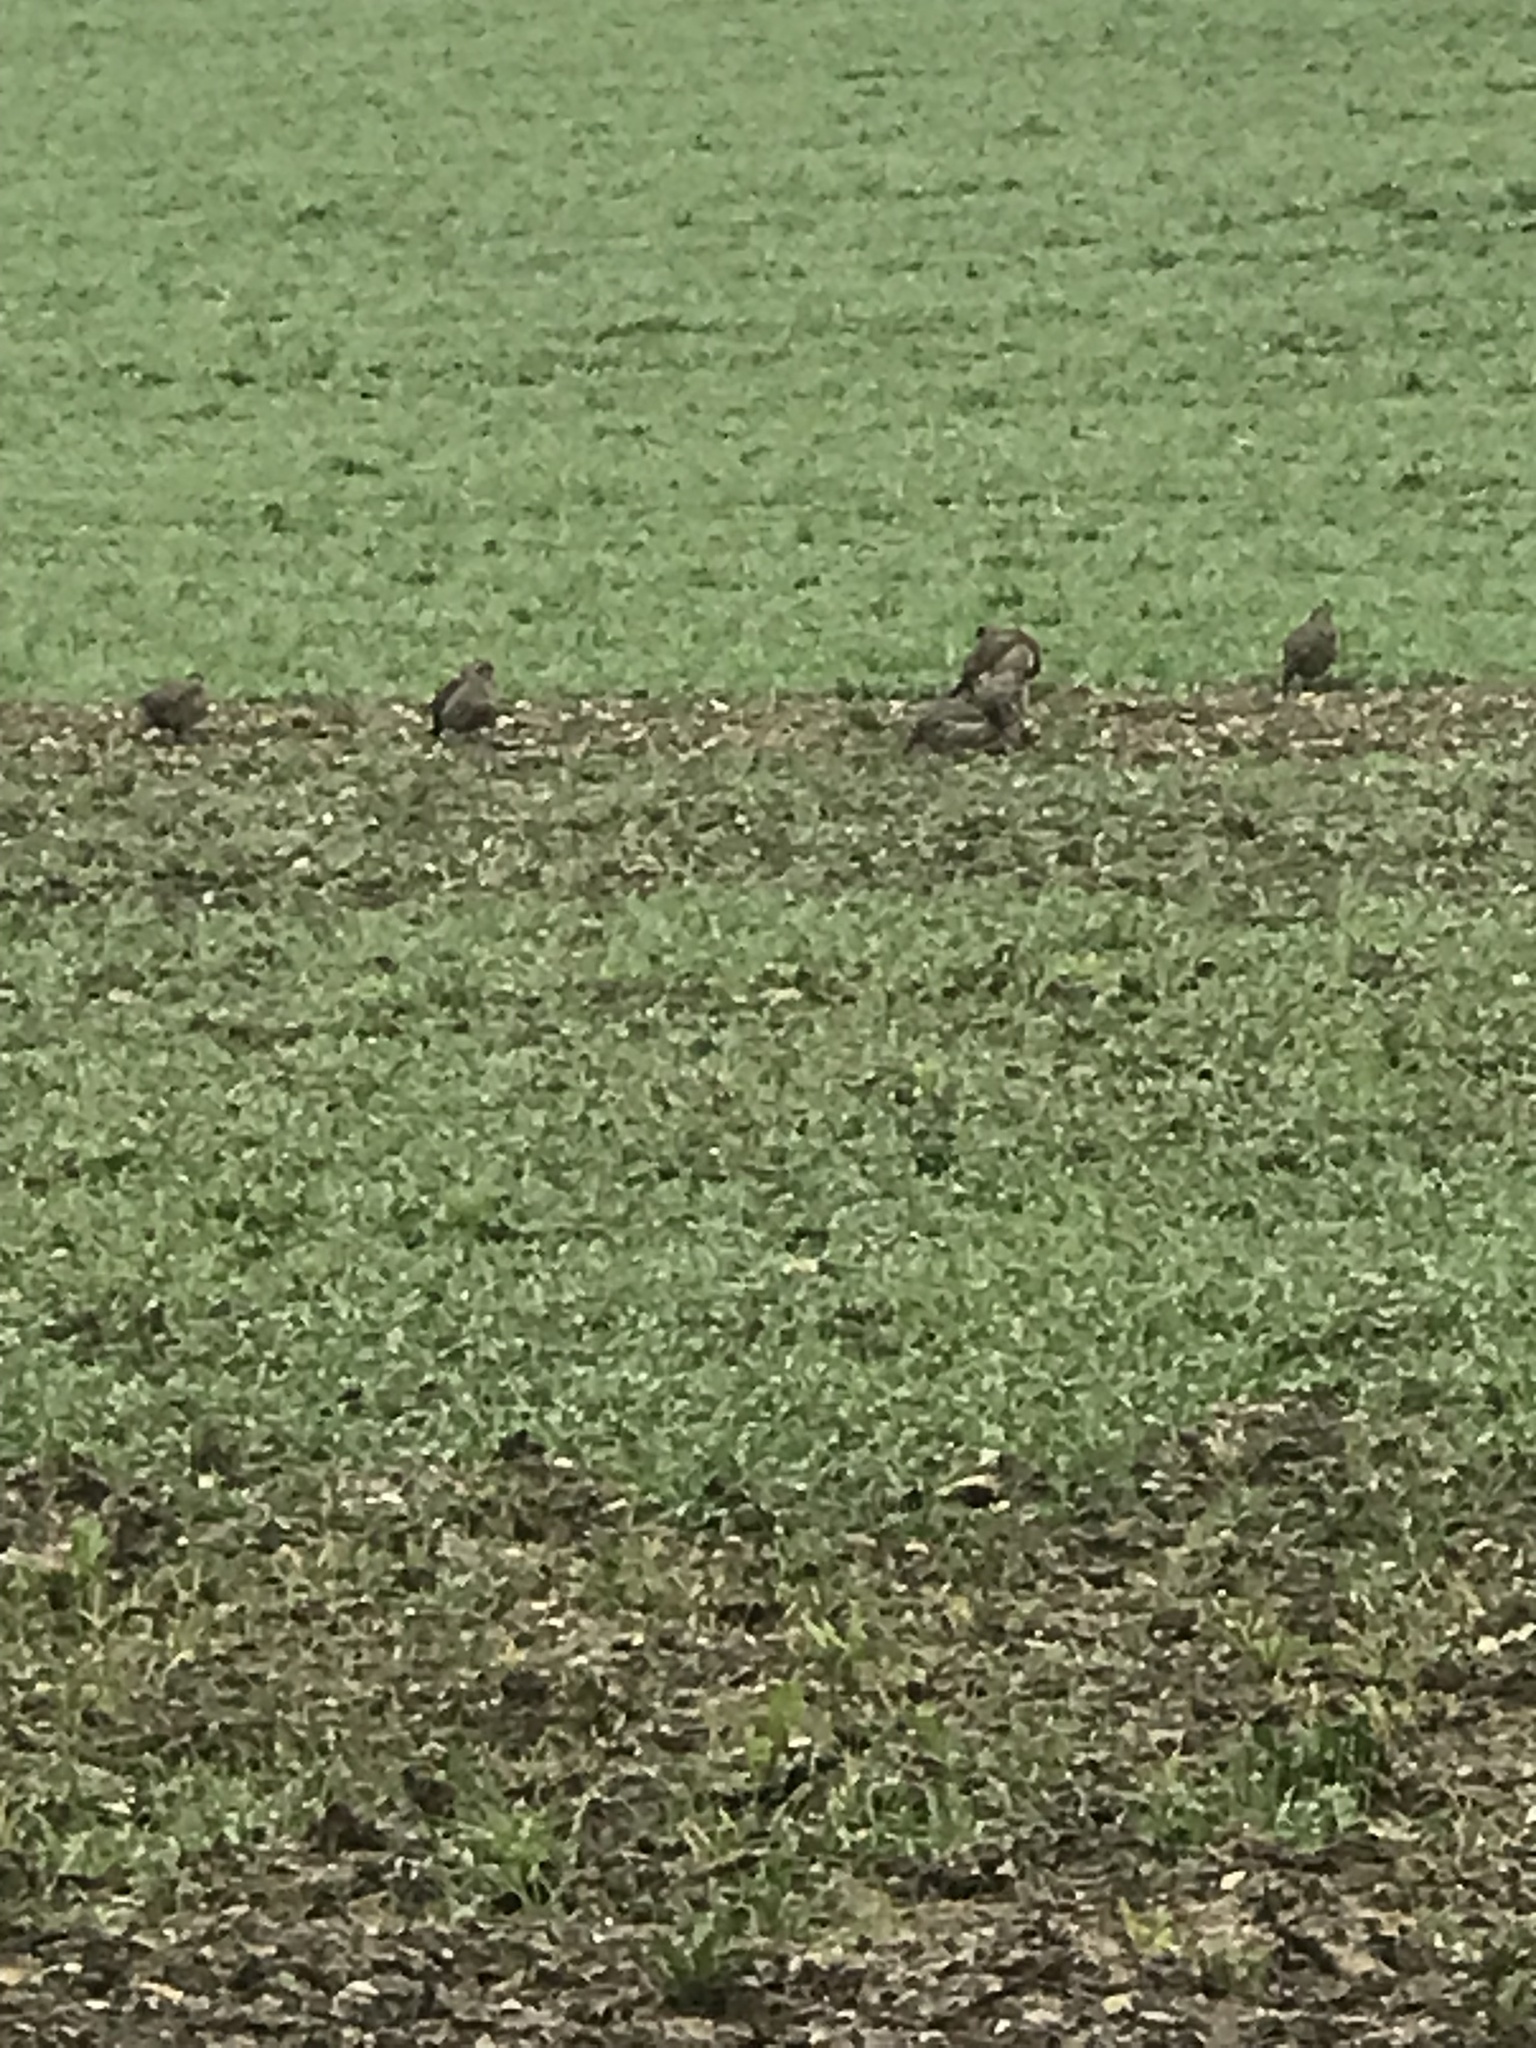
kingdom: Animalia
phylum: Chordata
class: Aves
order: Galliformes
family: Phasianidae
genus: Alectoris
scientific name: Alectoris rufa
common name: Red-legged partridge
